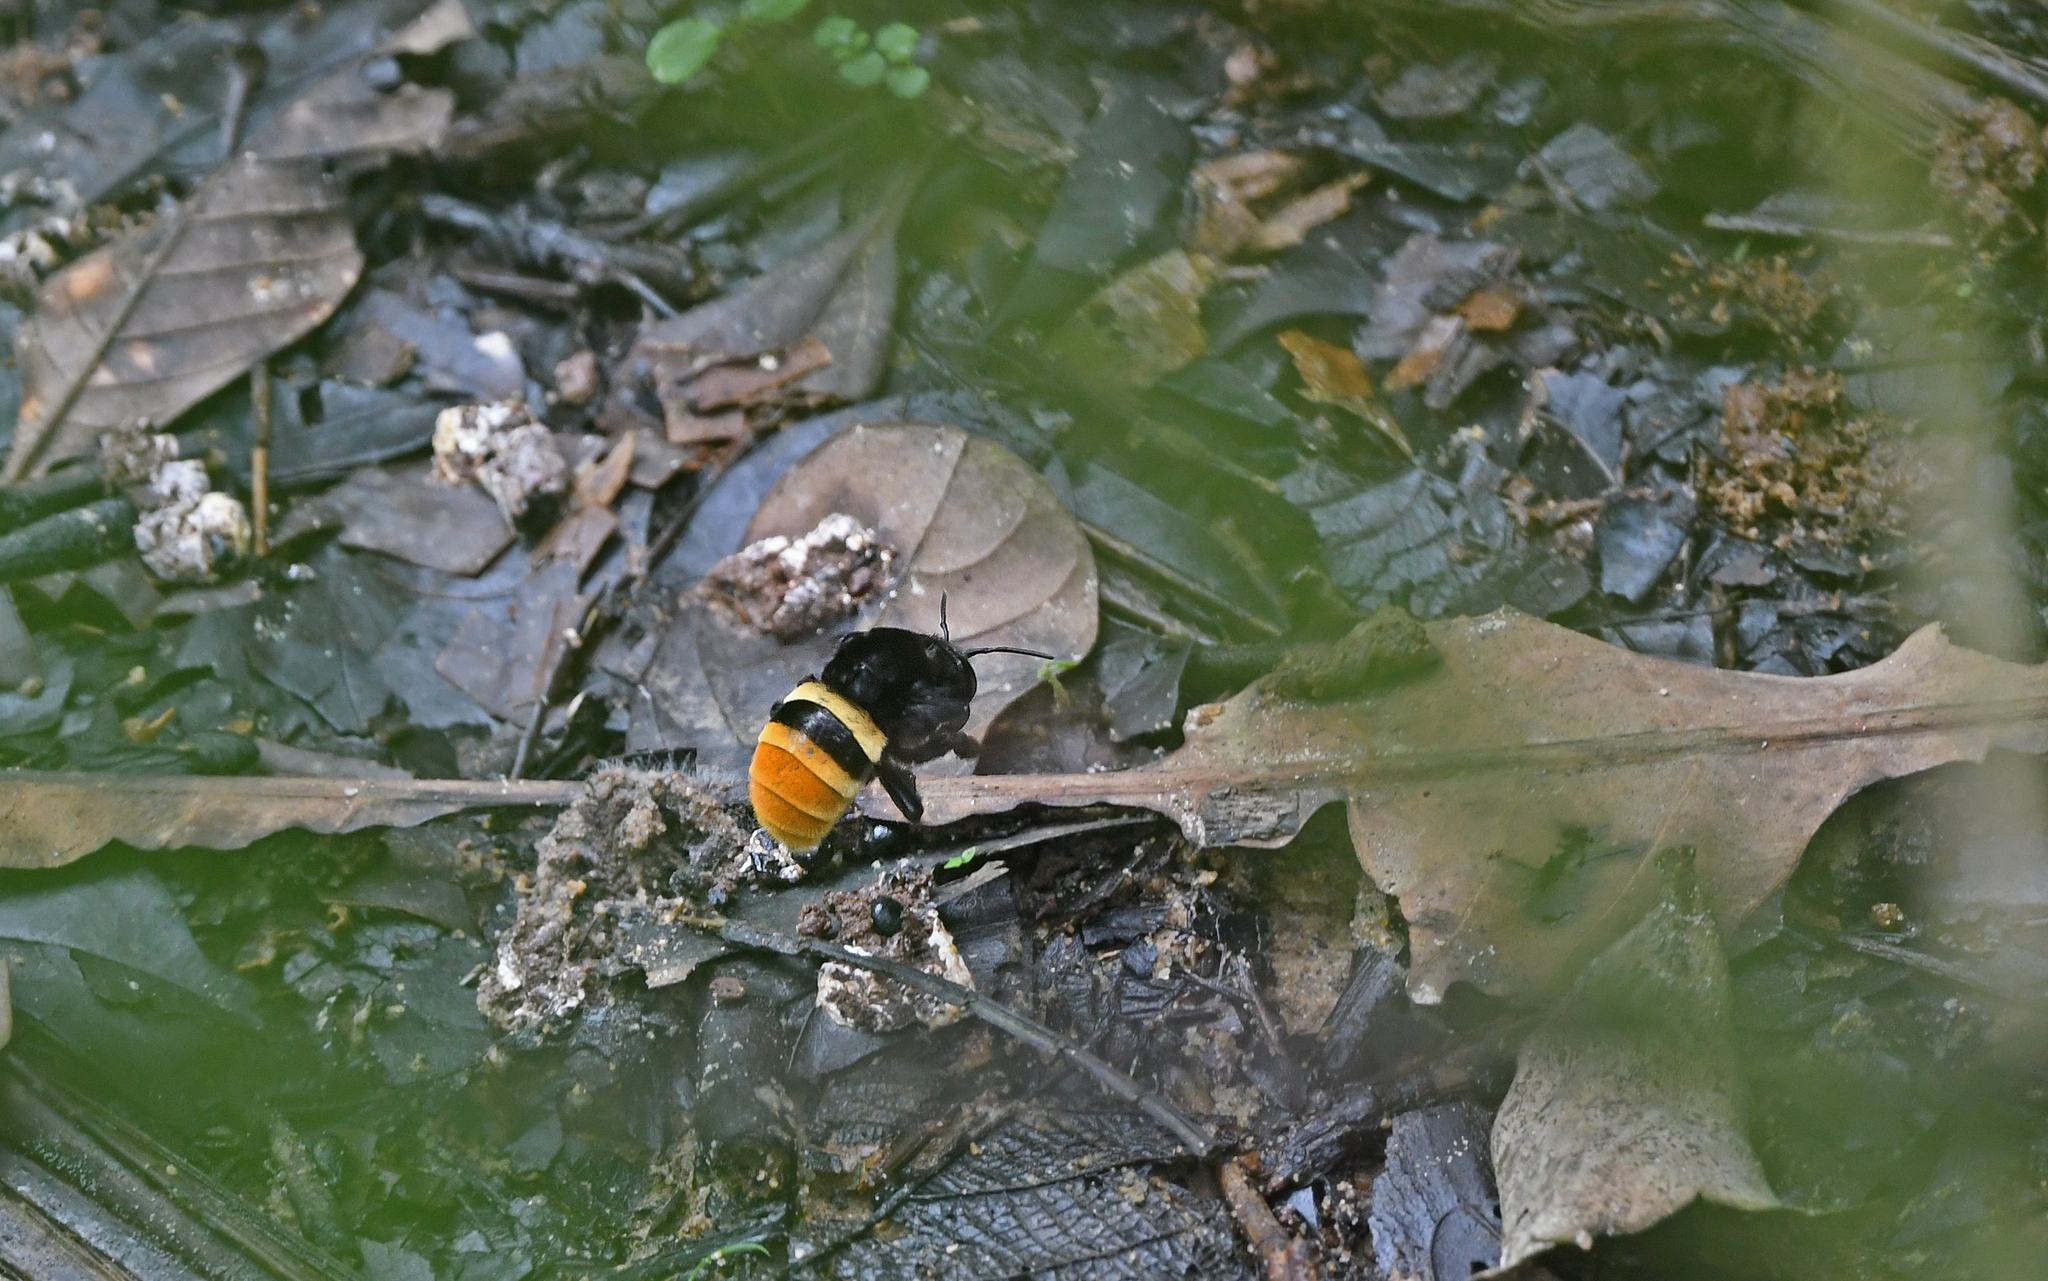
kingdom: Animalia
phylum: Arthropoda
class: Insecta
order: Hymenoptera
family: Apidae
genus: Eulaema
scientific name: Eulaema cingulata
